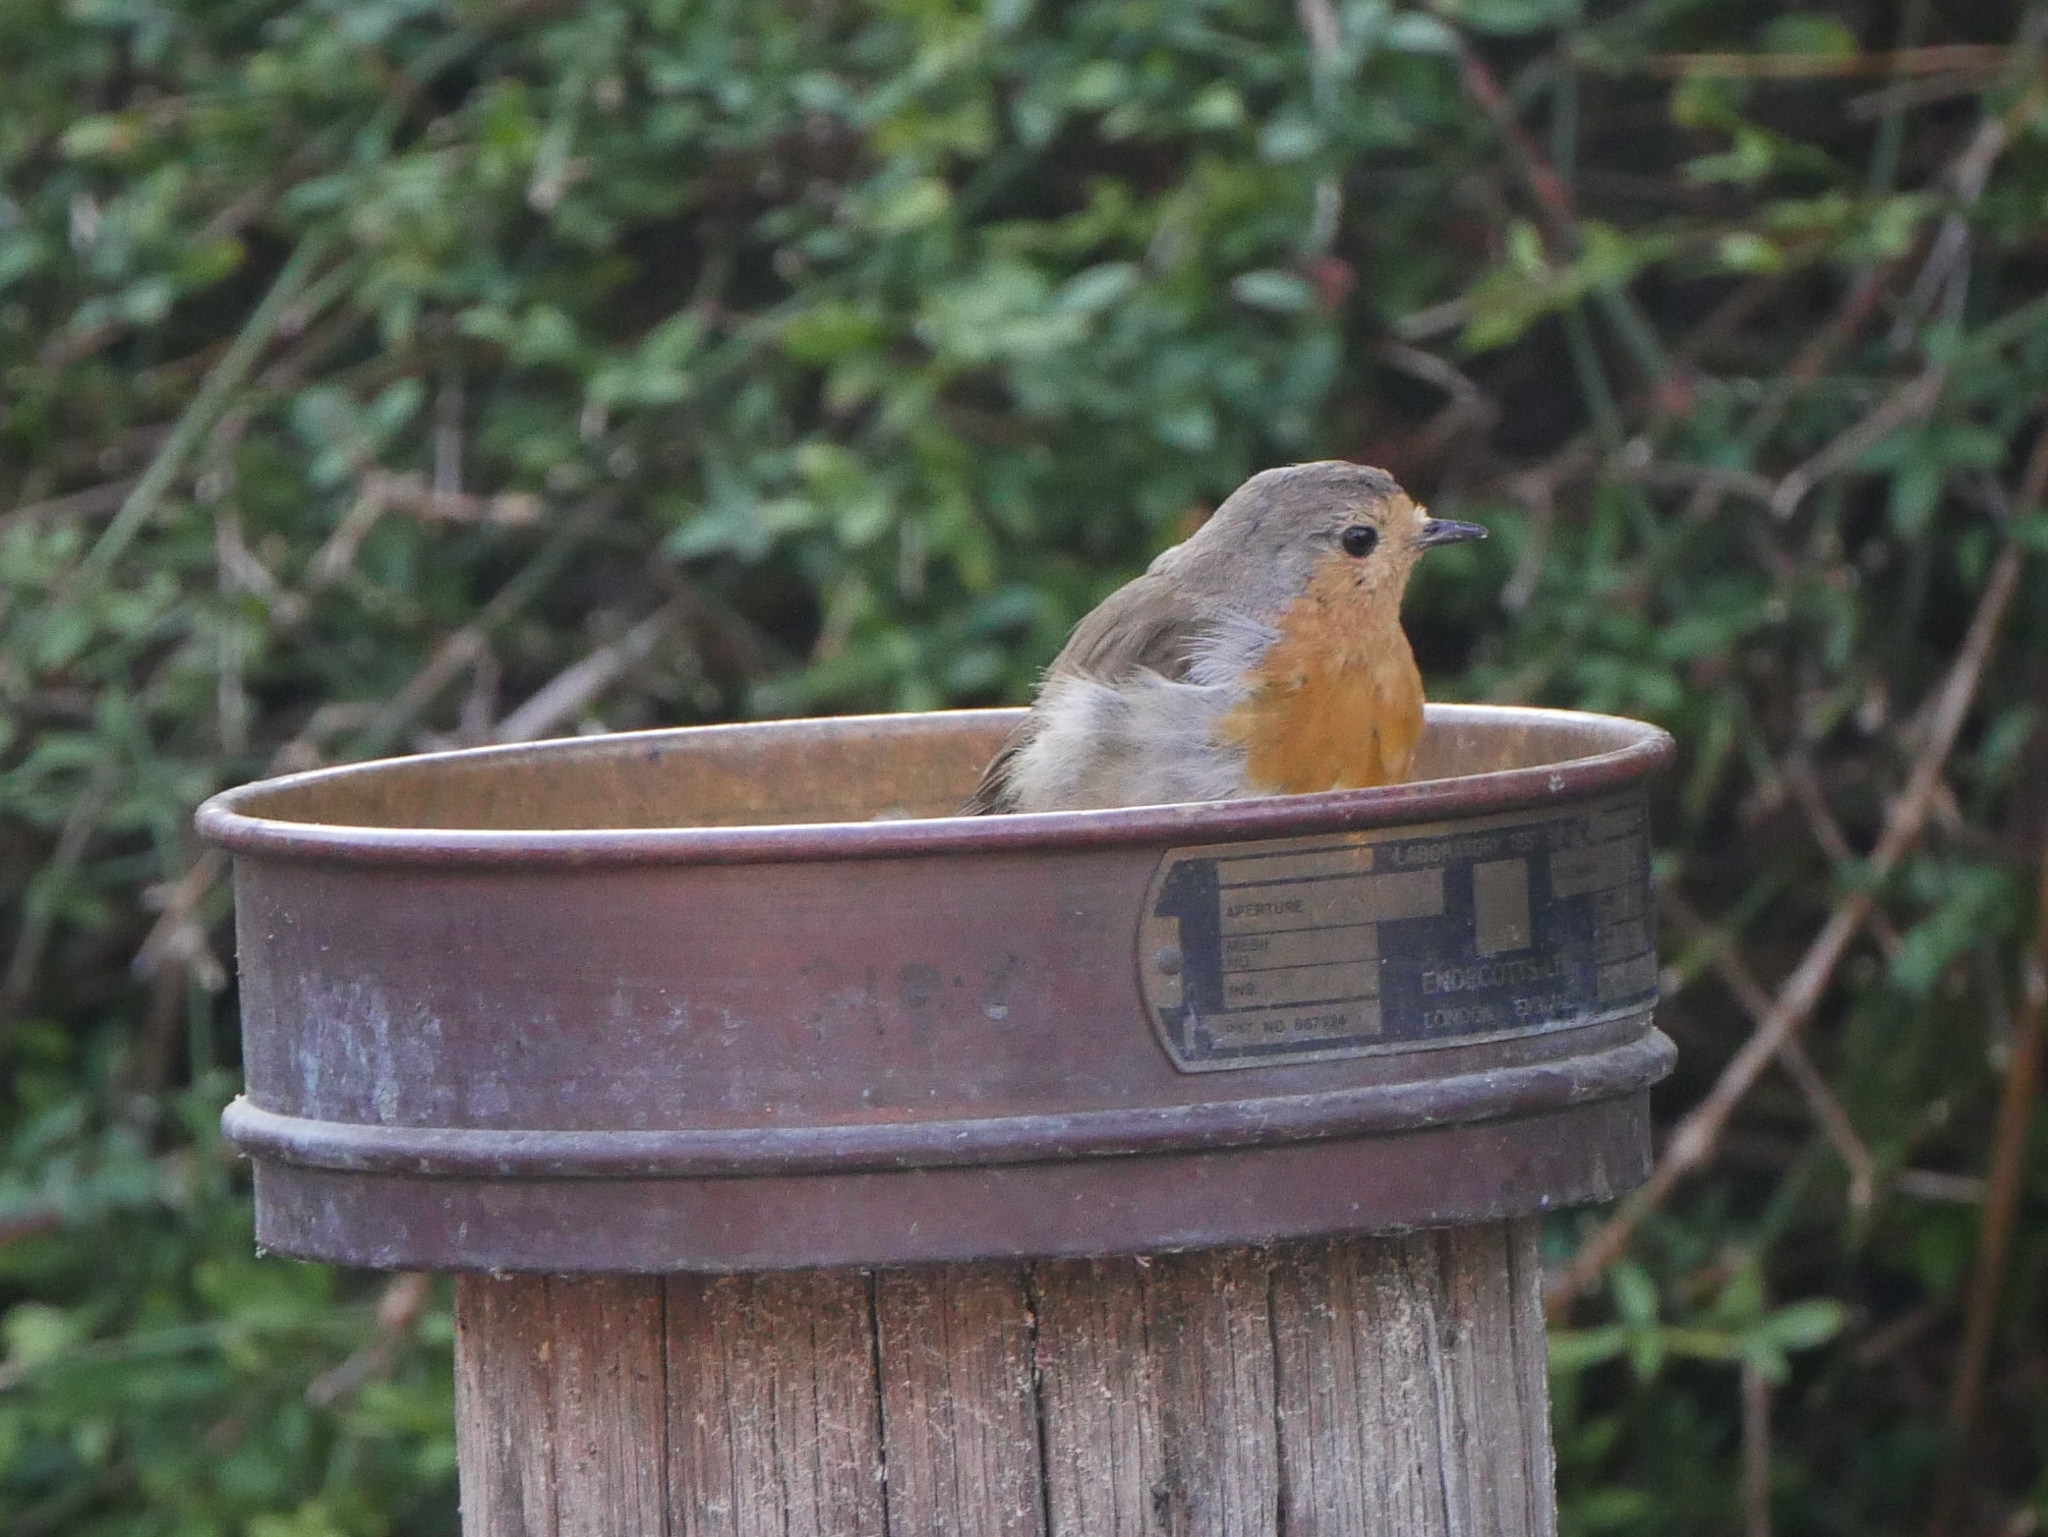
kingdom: Animalia
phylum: Chordata
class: Aves
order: Passeriformes
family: Muscicapidae
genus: Erithacus
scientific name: Erithacus rubecula
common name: European robin
